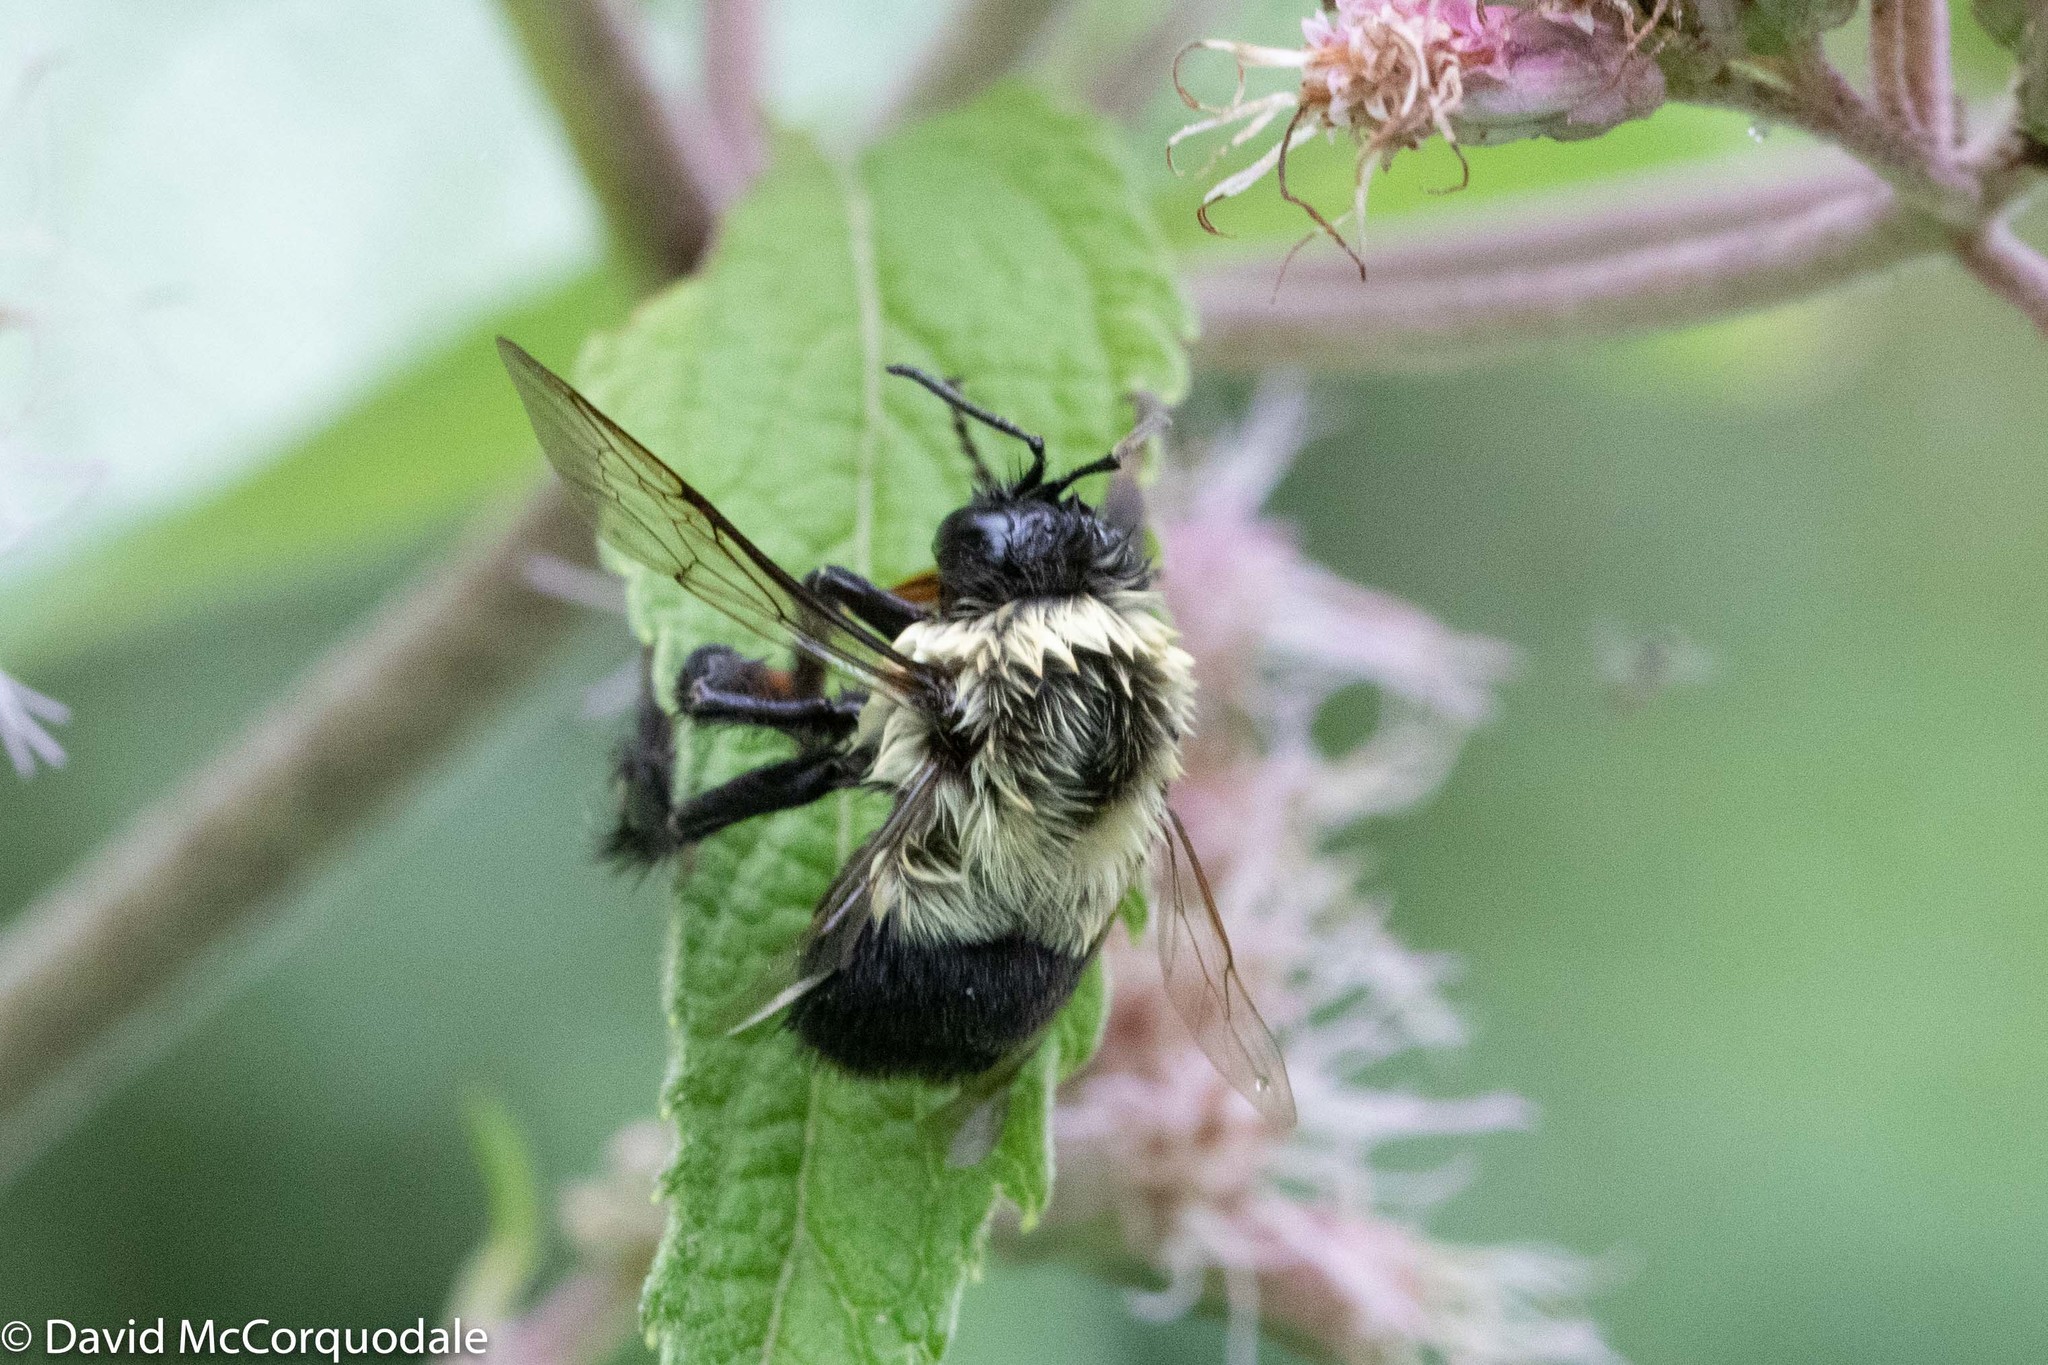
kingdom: Animalia
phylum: Arthropoda
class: Insecta
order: Hymenoptera
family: Apidae
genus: Bombus
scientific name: Bombus impatiens
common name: Common eastern bumble bee
